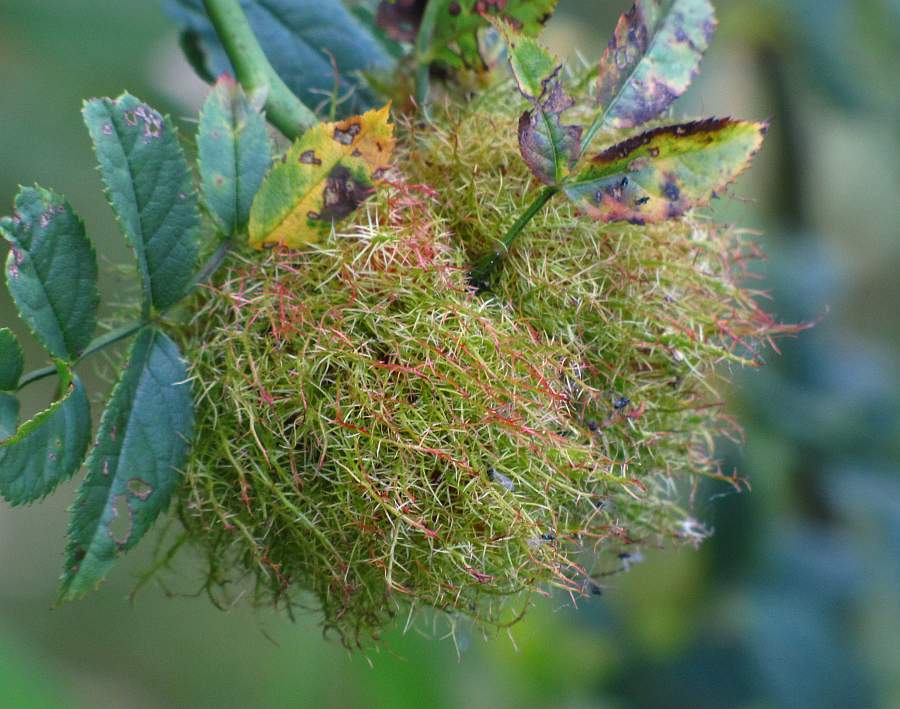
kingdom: Animalia
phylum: Arthropoda
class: Insecta
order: Hymenoptera
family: Cynipidae
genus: Diplolepis
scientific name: Diplolepis rosae
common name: Bedeguar gall
